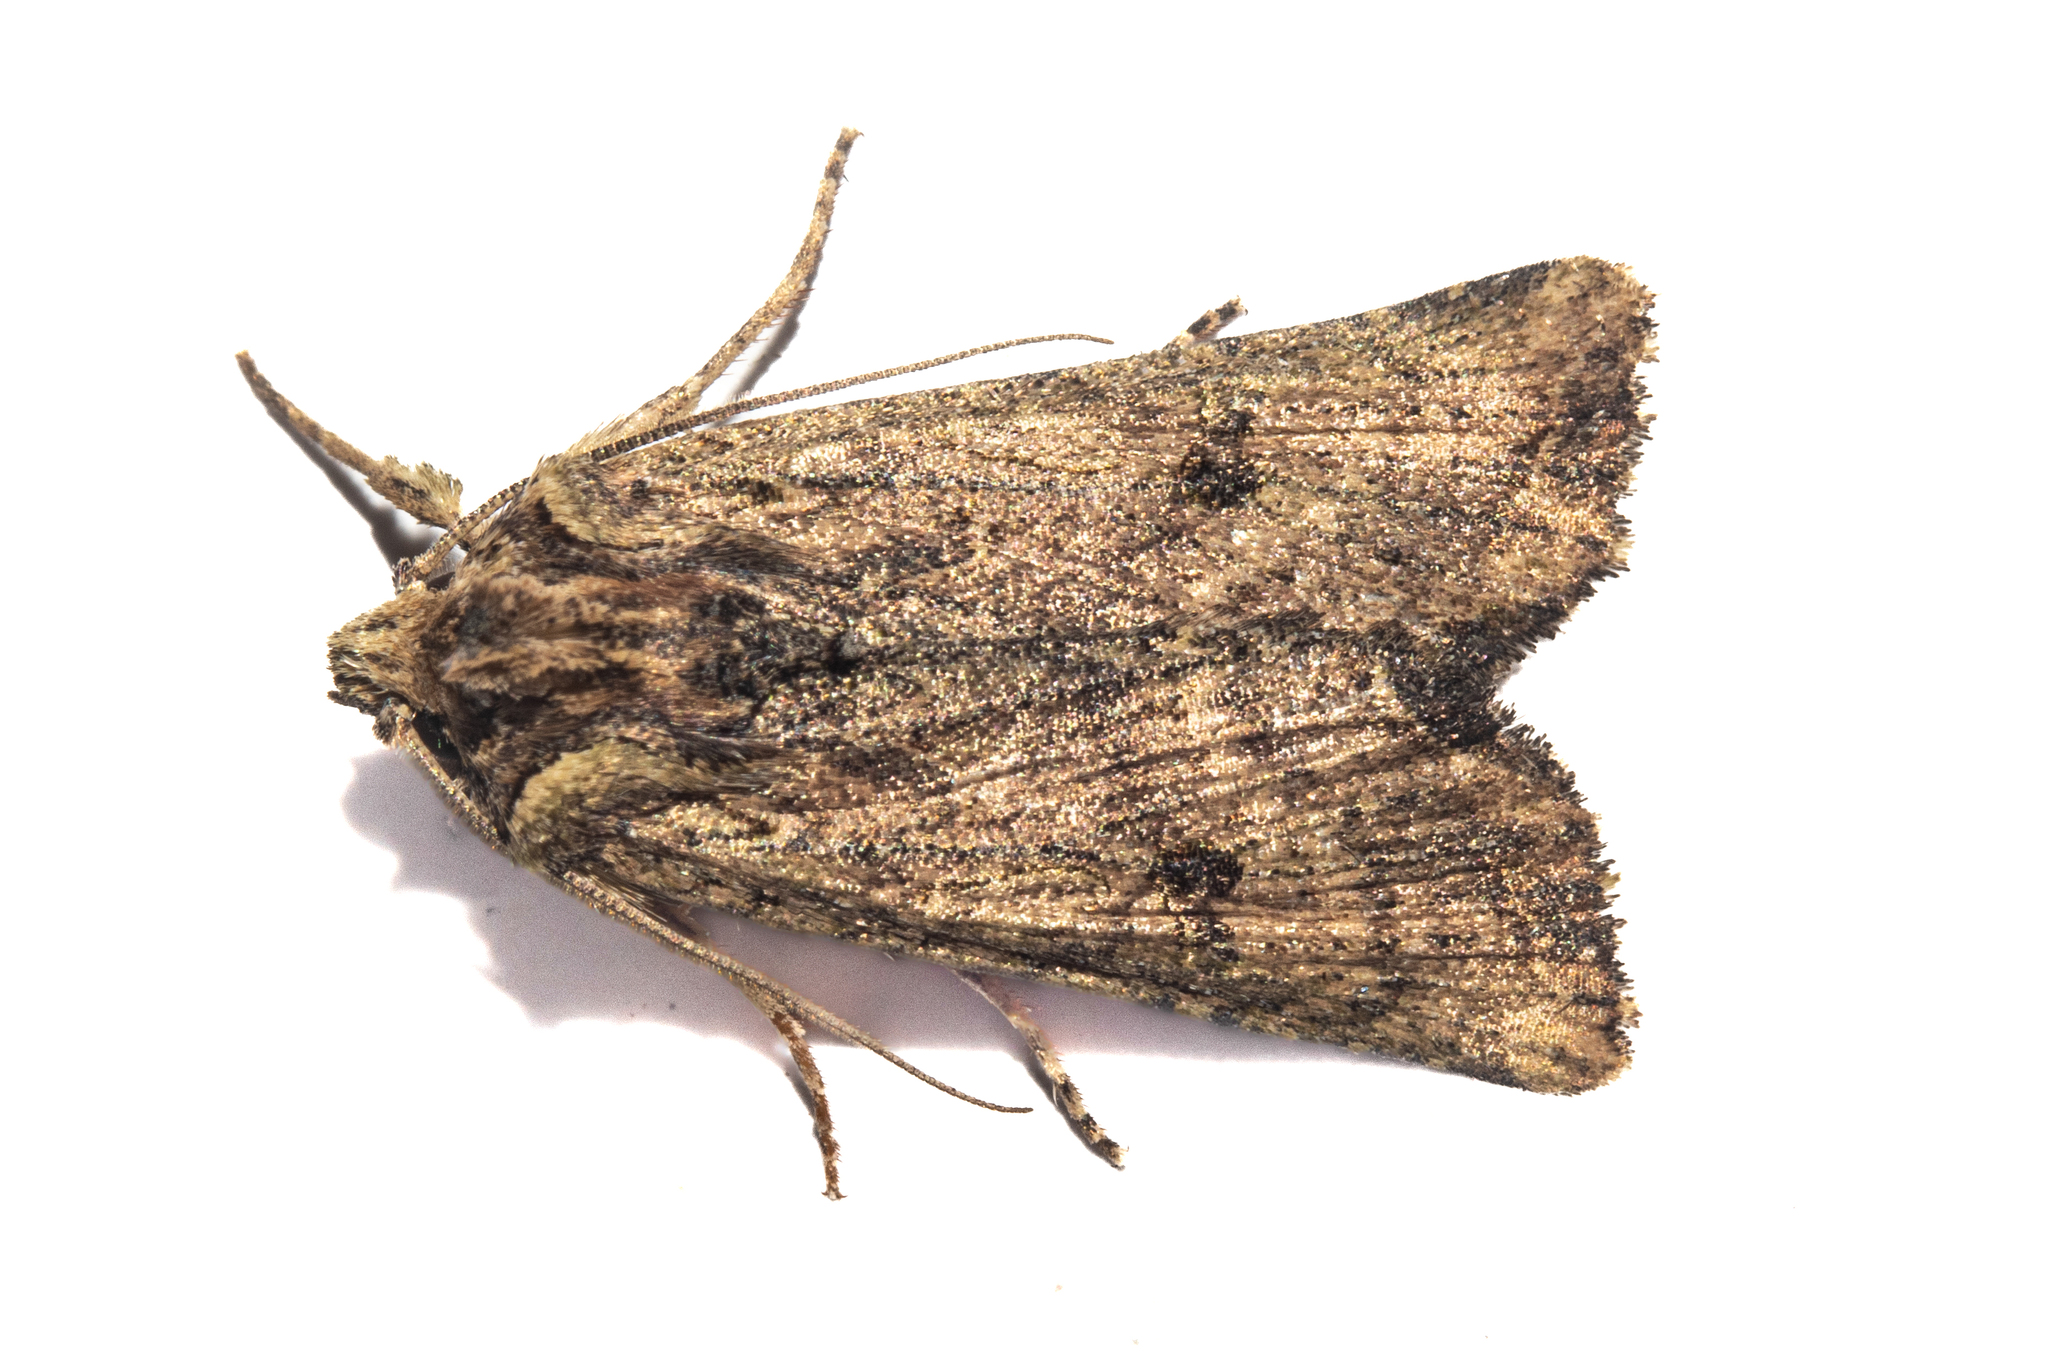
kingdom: Animalia
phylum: Arthropoda
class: Insecta
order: Lepidoptera
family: Noctuidae
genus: Meterana
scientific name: Meterana coeleno
